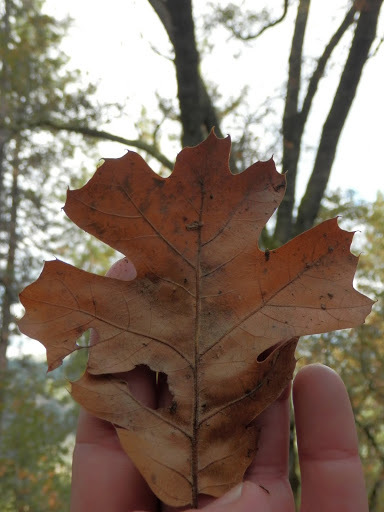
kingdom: Plantae
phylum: Tracheophyta
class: Magnoliopsida
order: Fagales
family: Fagaceae
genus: Quercus
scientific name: Quercus kelloggii
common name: California black oak
